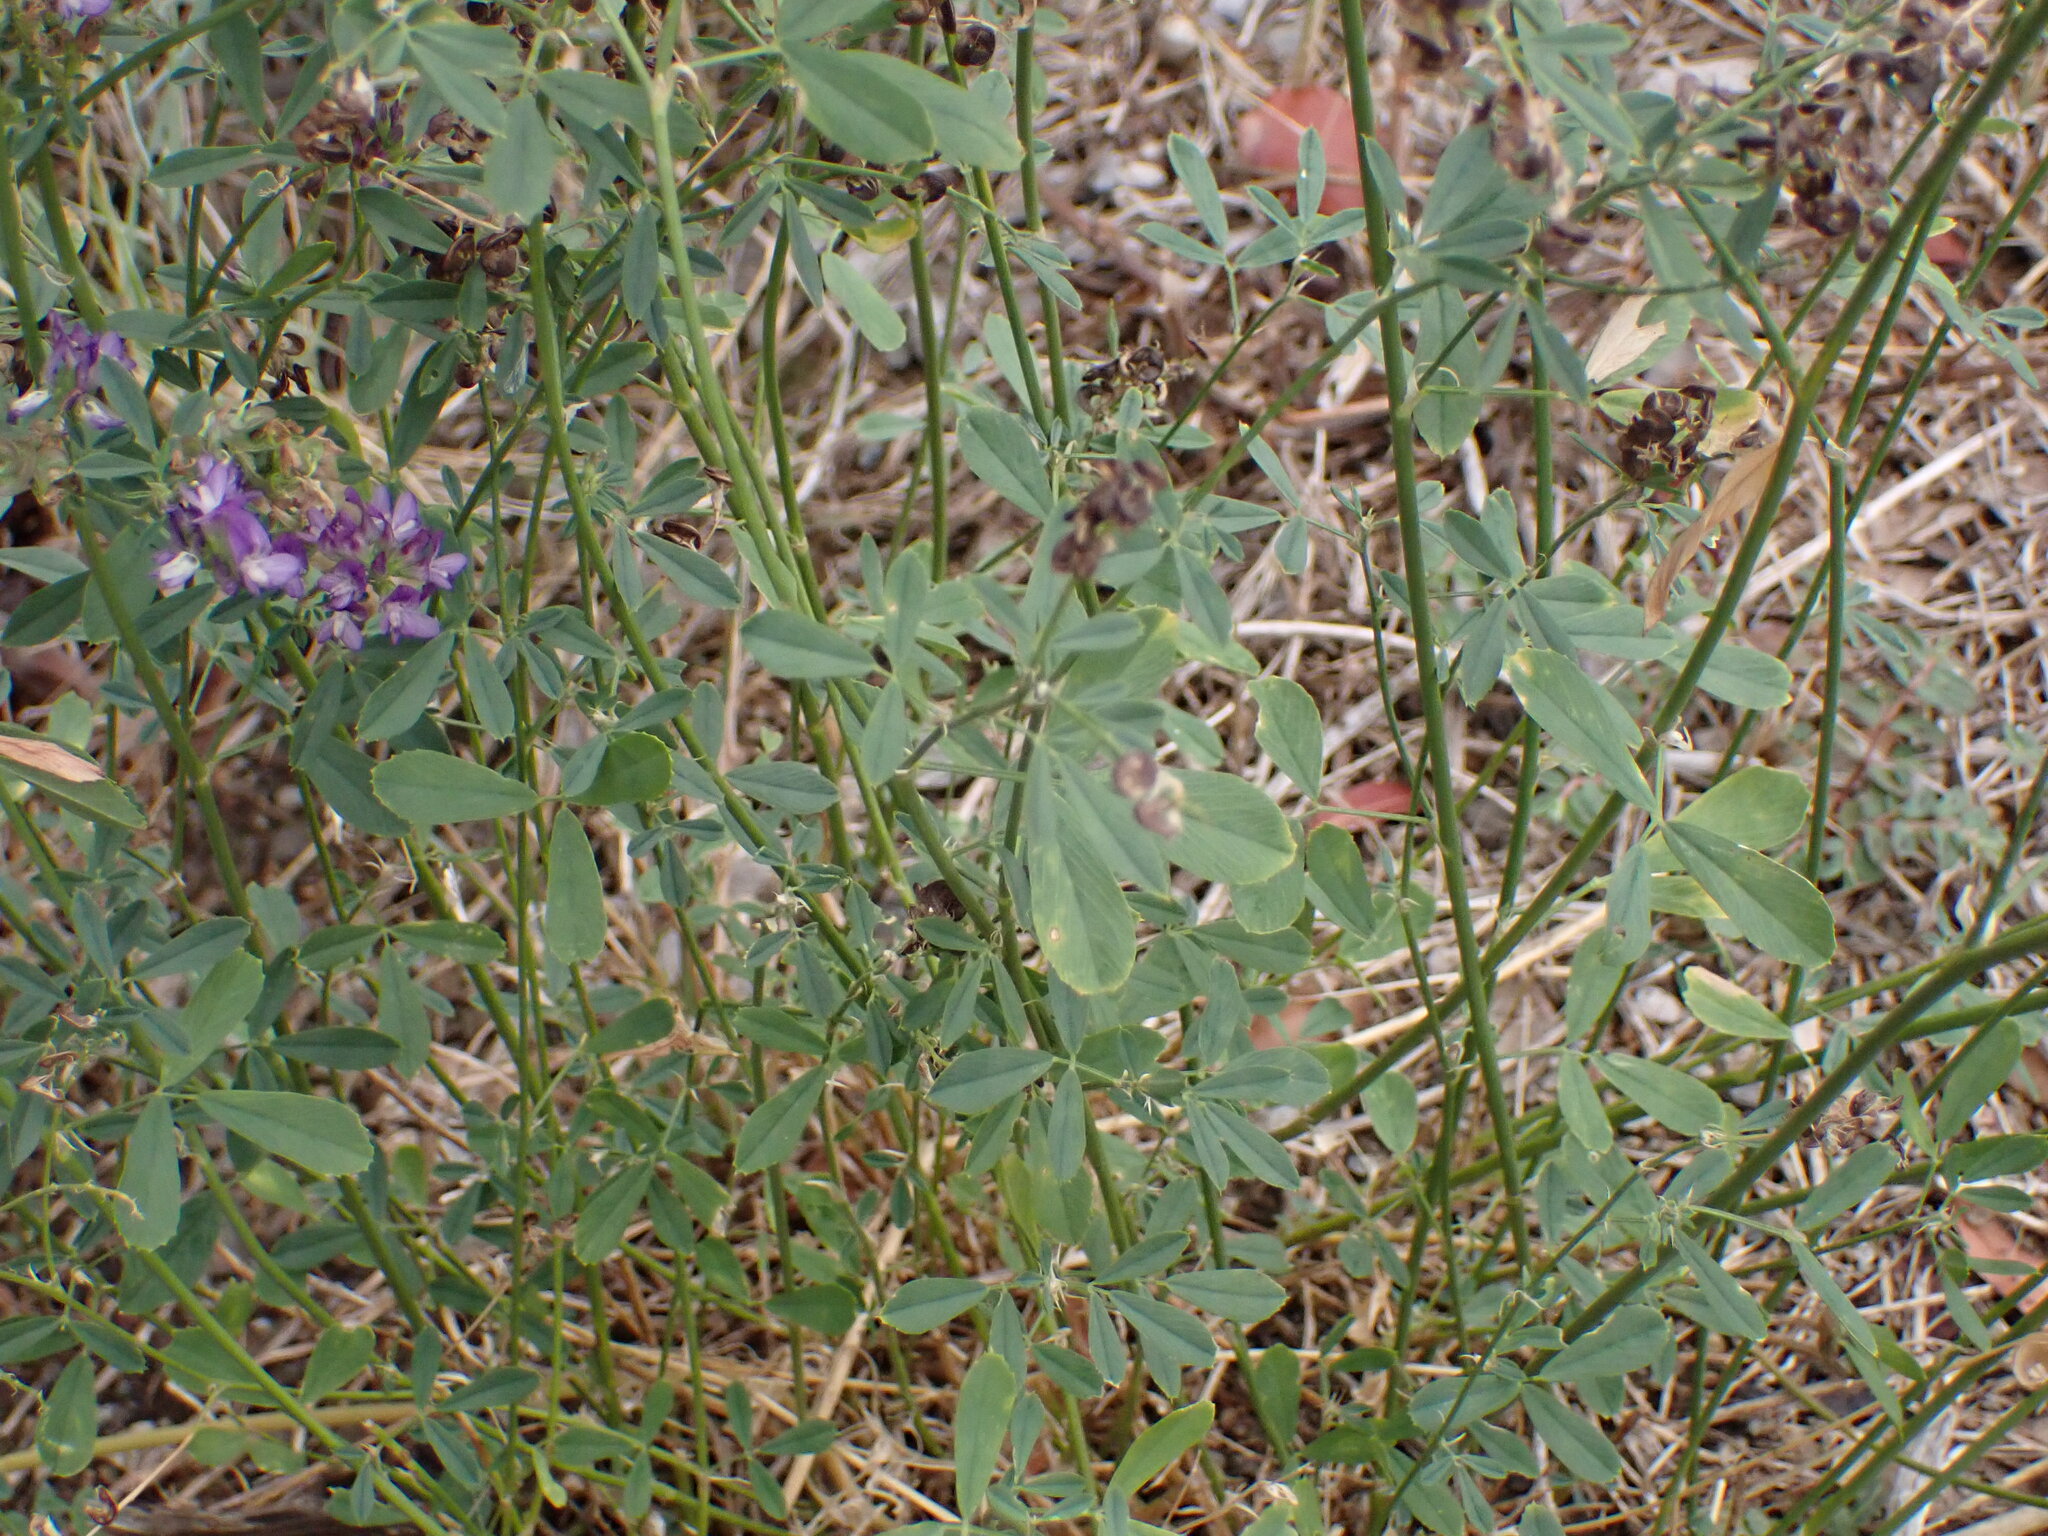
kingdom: Plantae
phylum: Tracheophyta
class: Magnoliopsida
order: Fabales
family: Fabaceae
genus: Medicago
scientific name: Medicago sativa
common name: Alfalfa
